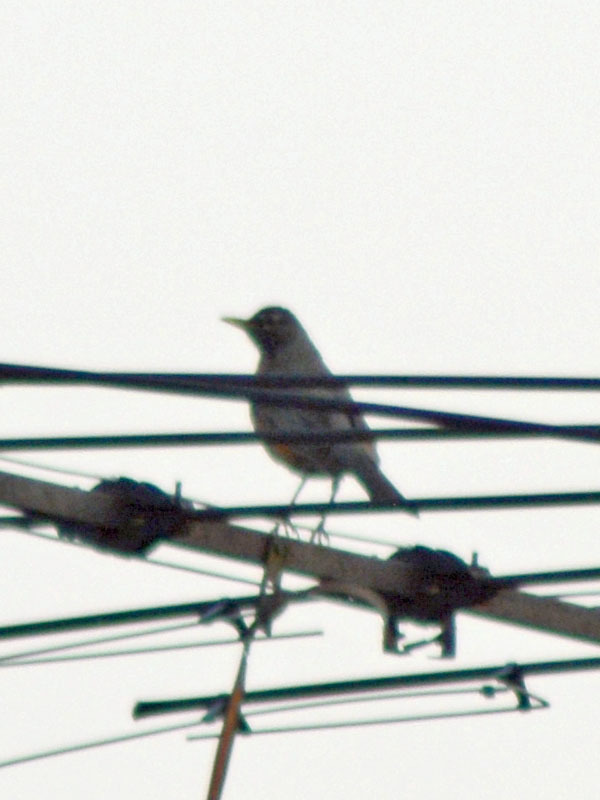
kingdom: Animalia
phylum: Chordata
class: Aves
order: Passeriformes
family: Turdidae
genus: Turdus
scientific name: Turdus migratorius
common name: American robin
